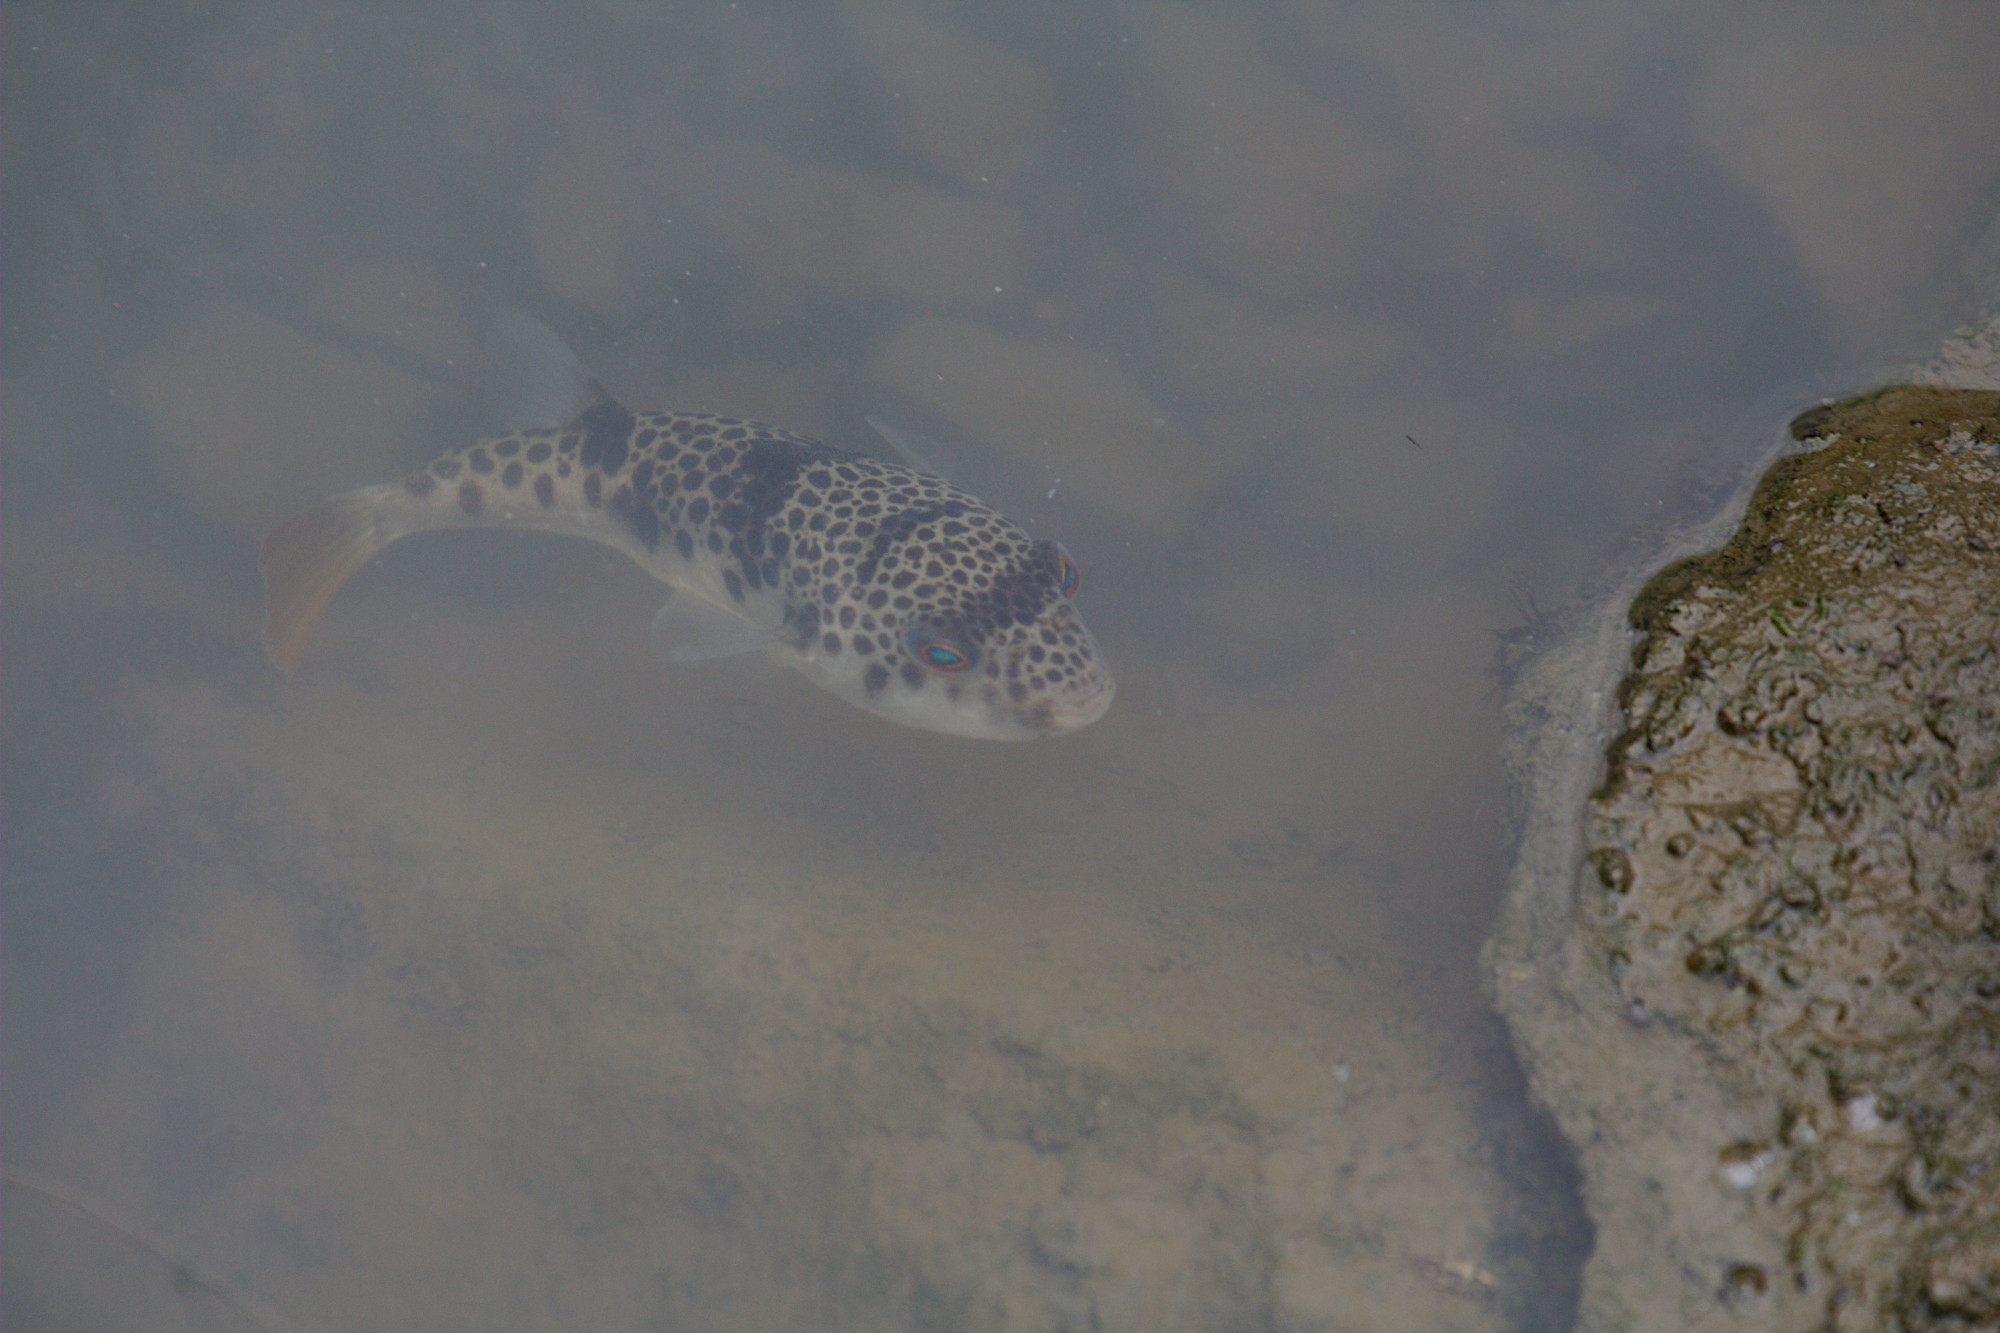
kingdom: Animalia
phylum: Chordata
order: Tetraodontiformes
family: Tetraodontidae
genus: Tetractenos
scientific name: Tetractenos glaber
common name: Smooth toadfish
